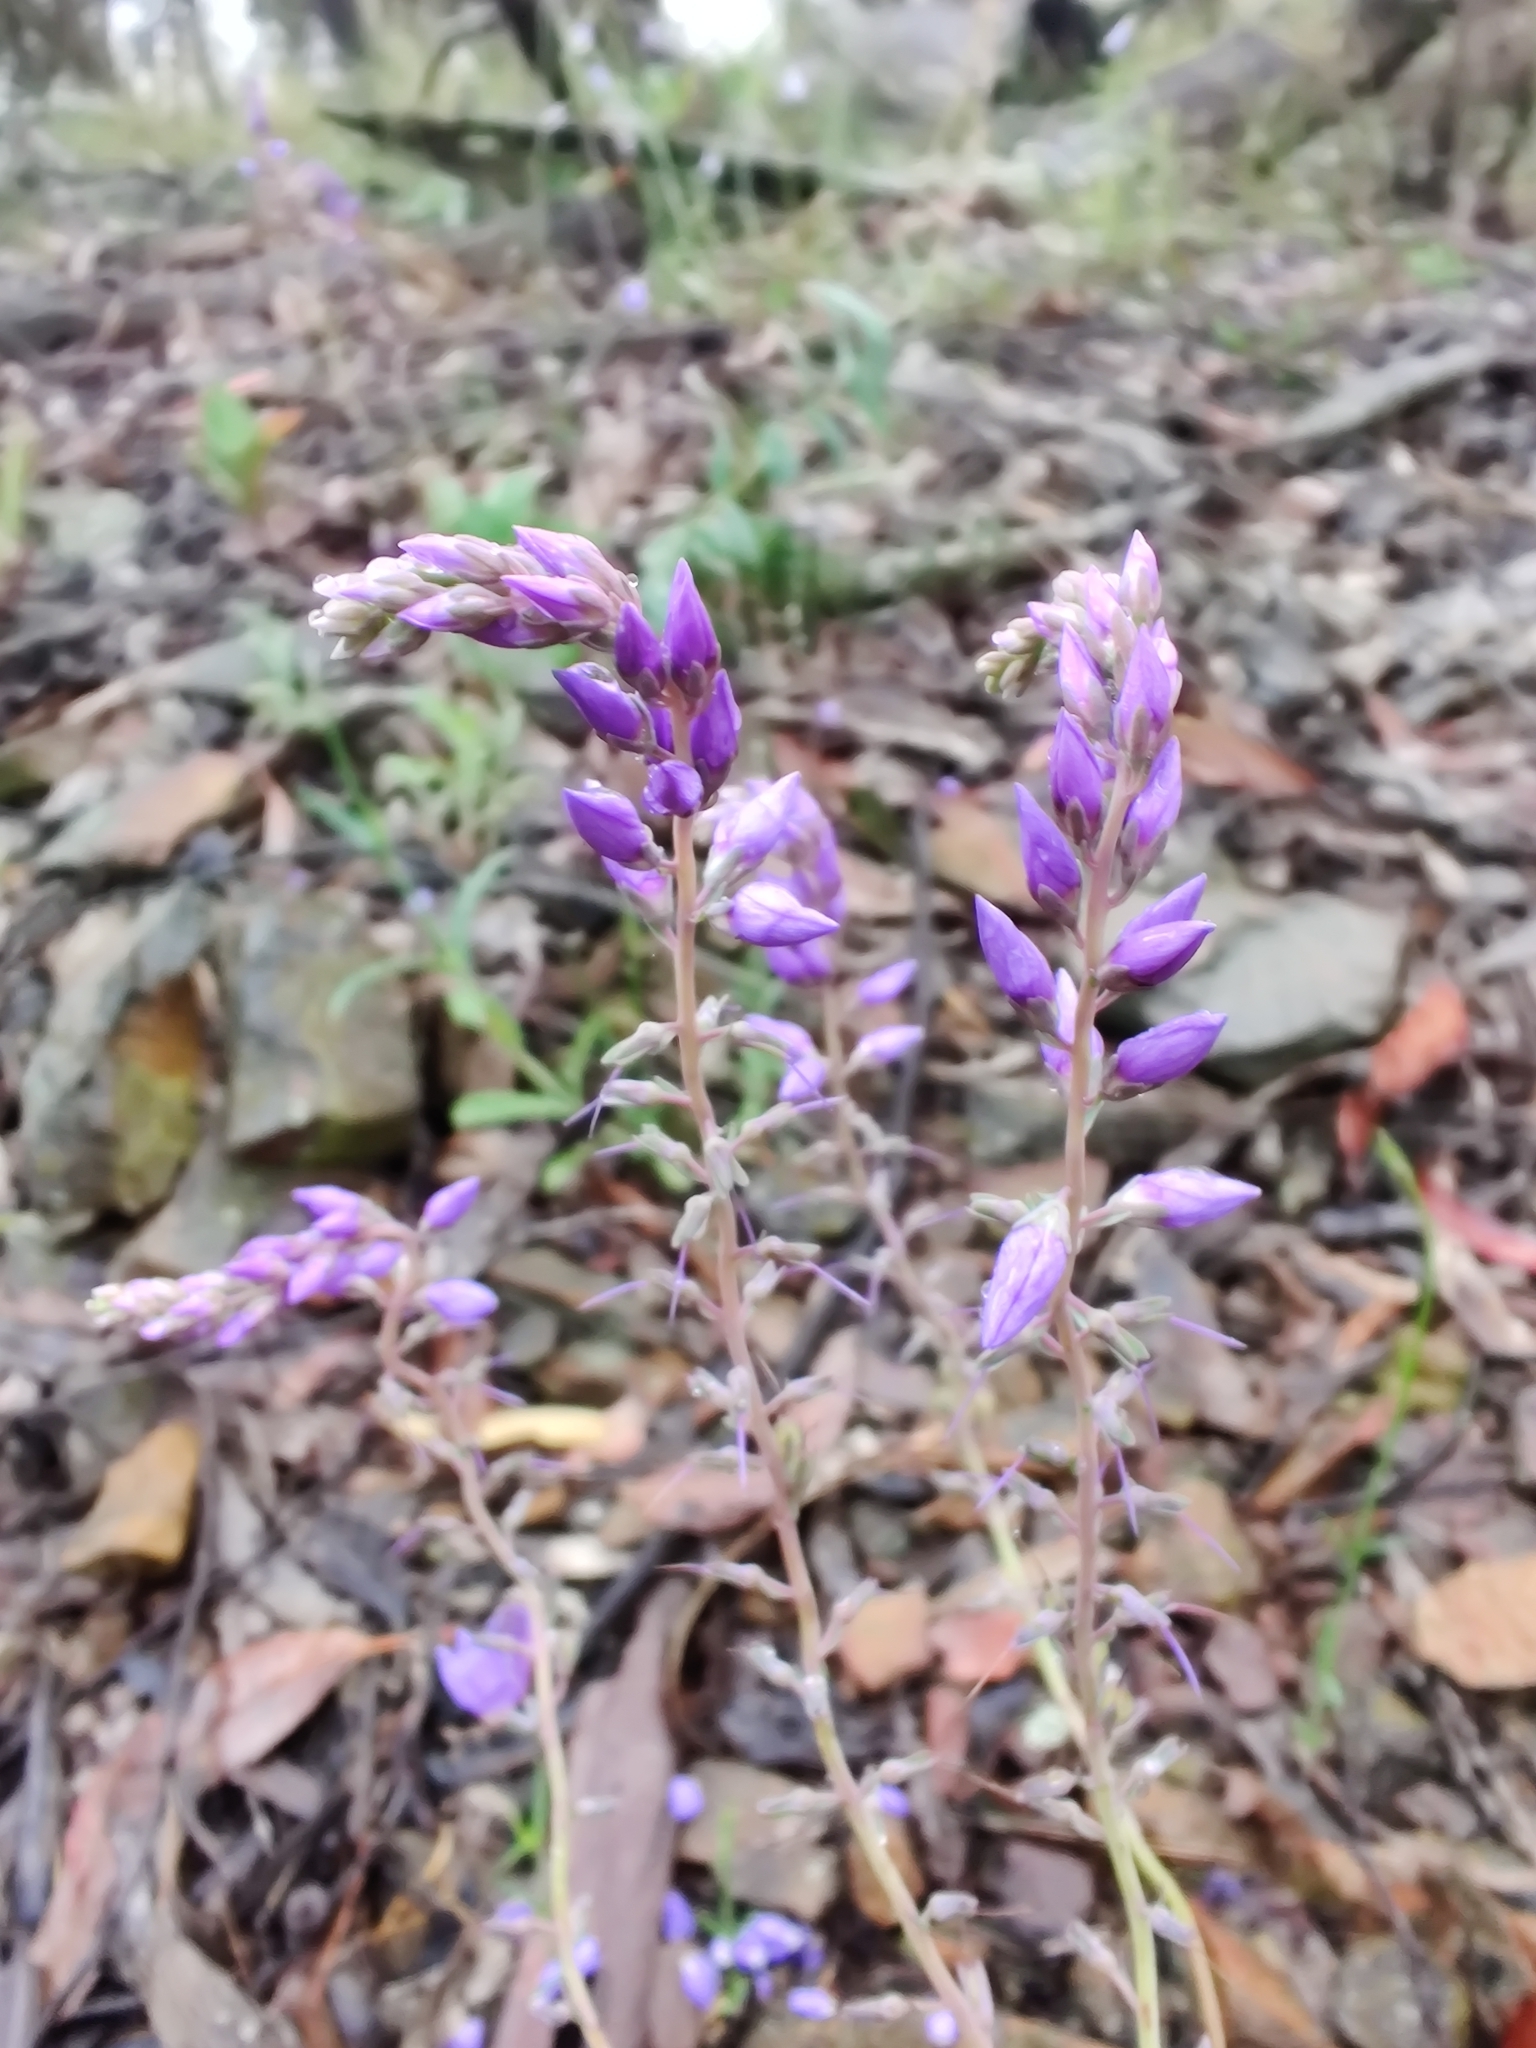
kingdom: Plantae
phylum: Tracheophyta
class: Magnoliopsida
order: Lamiales
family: Plantaginaceae
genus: Veronica
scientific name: Veronica perfoliata
